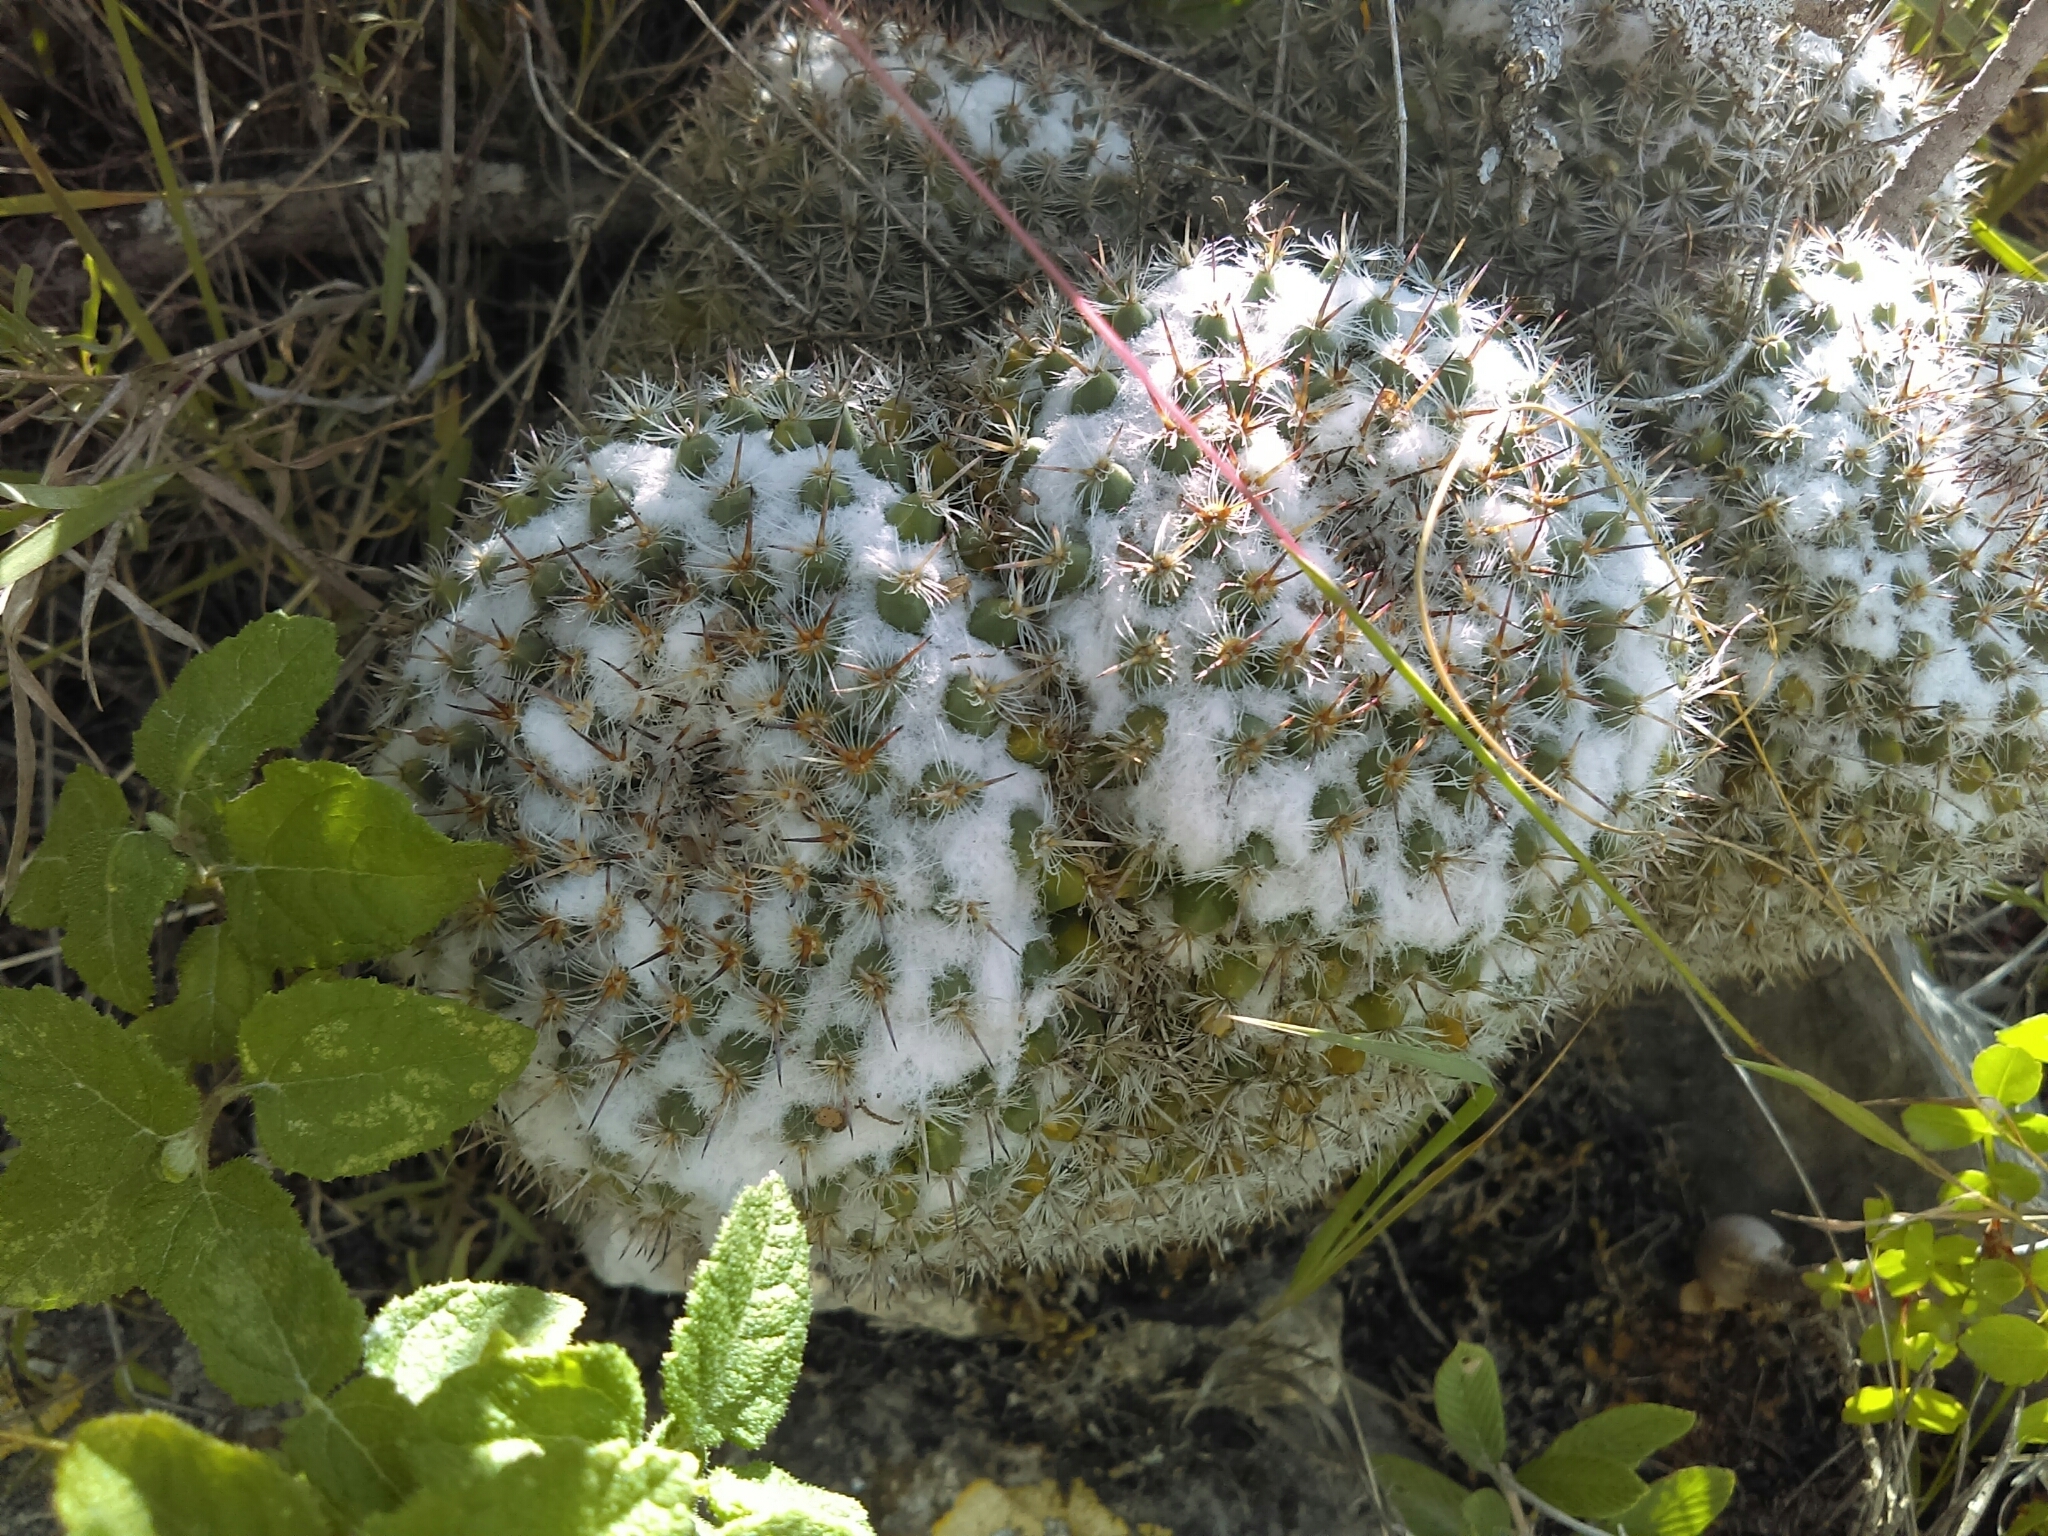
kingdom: Plantae
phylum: Tracheophyta
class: Magnoliopsida
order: Caryophyllales
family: Cactaceae
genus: Mammillaria
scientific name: Mammillaria parkinsonii
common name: Owl's-eye
